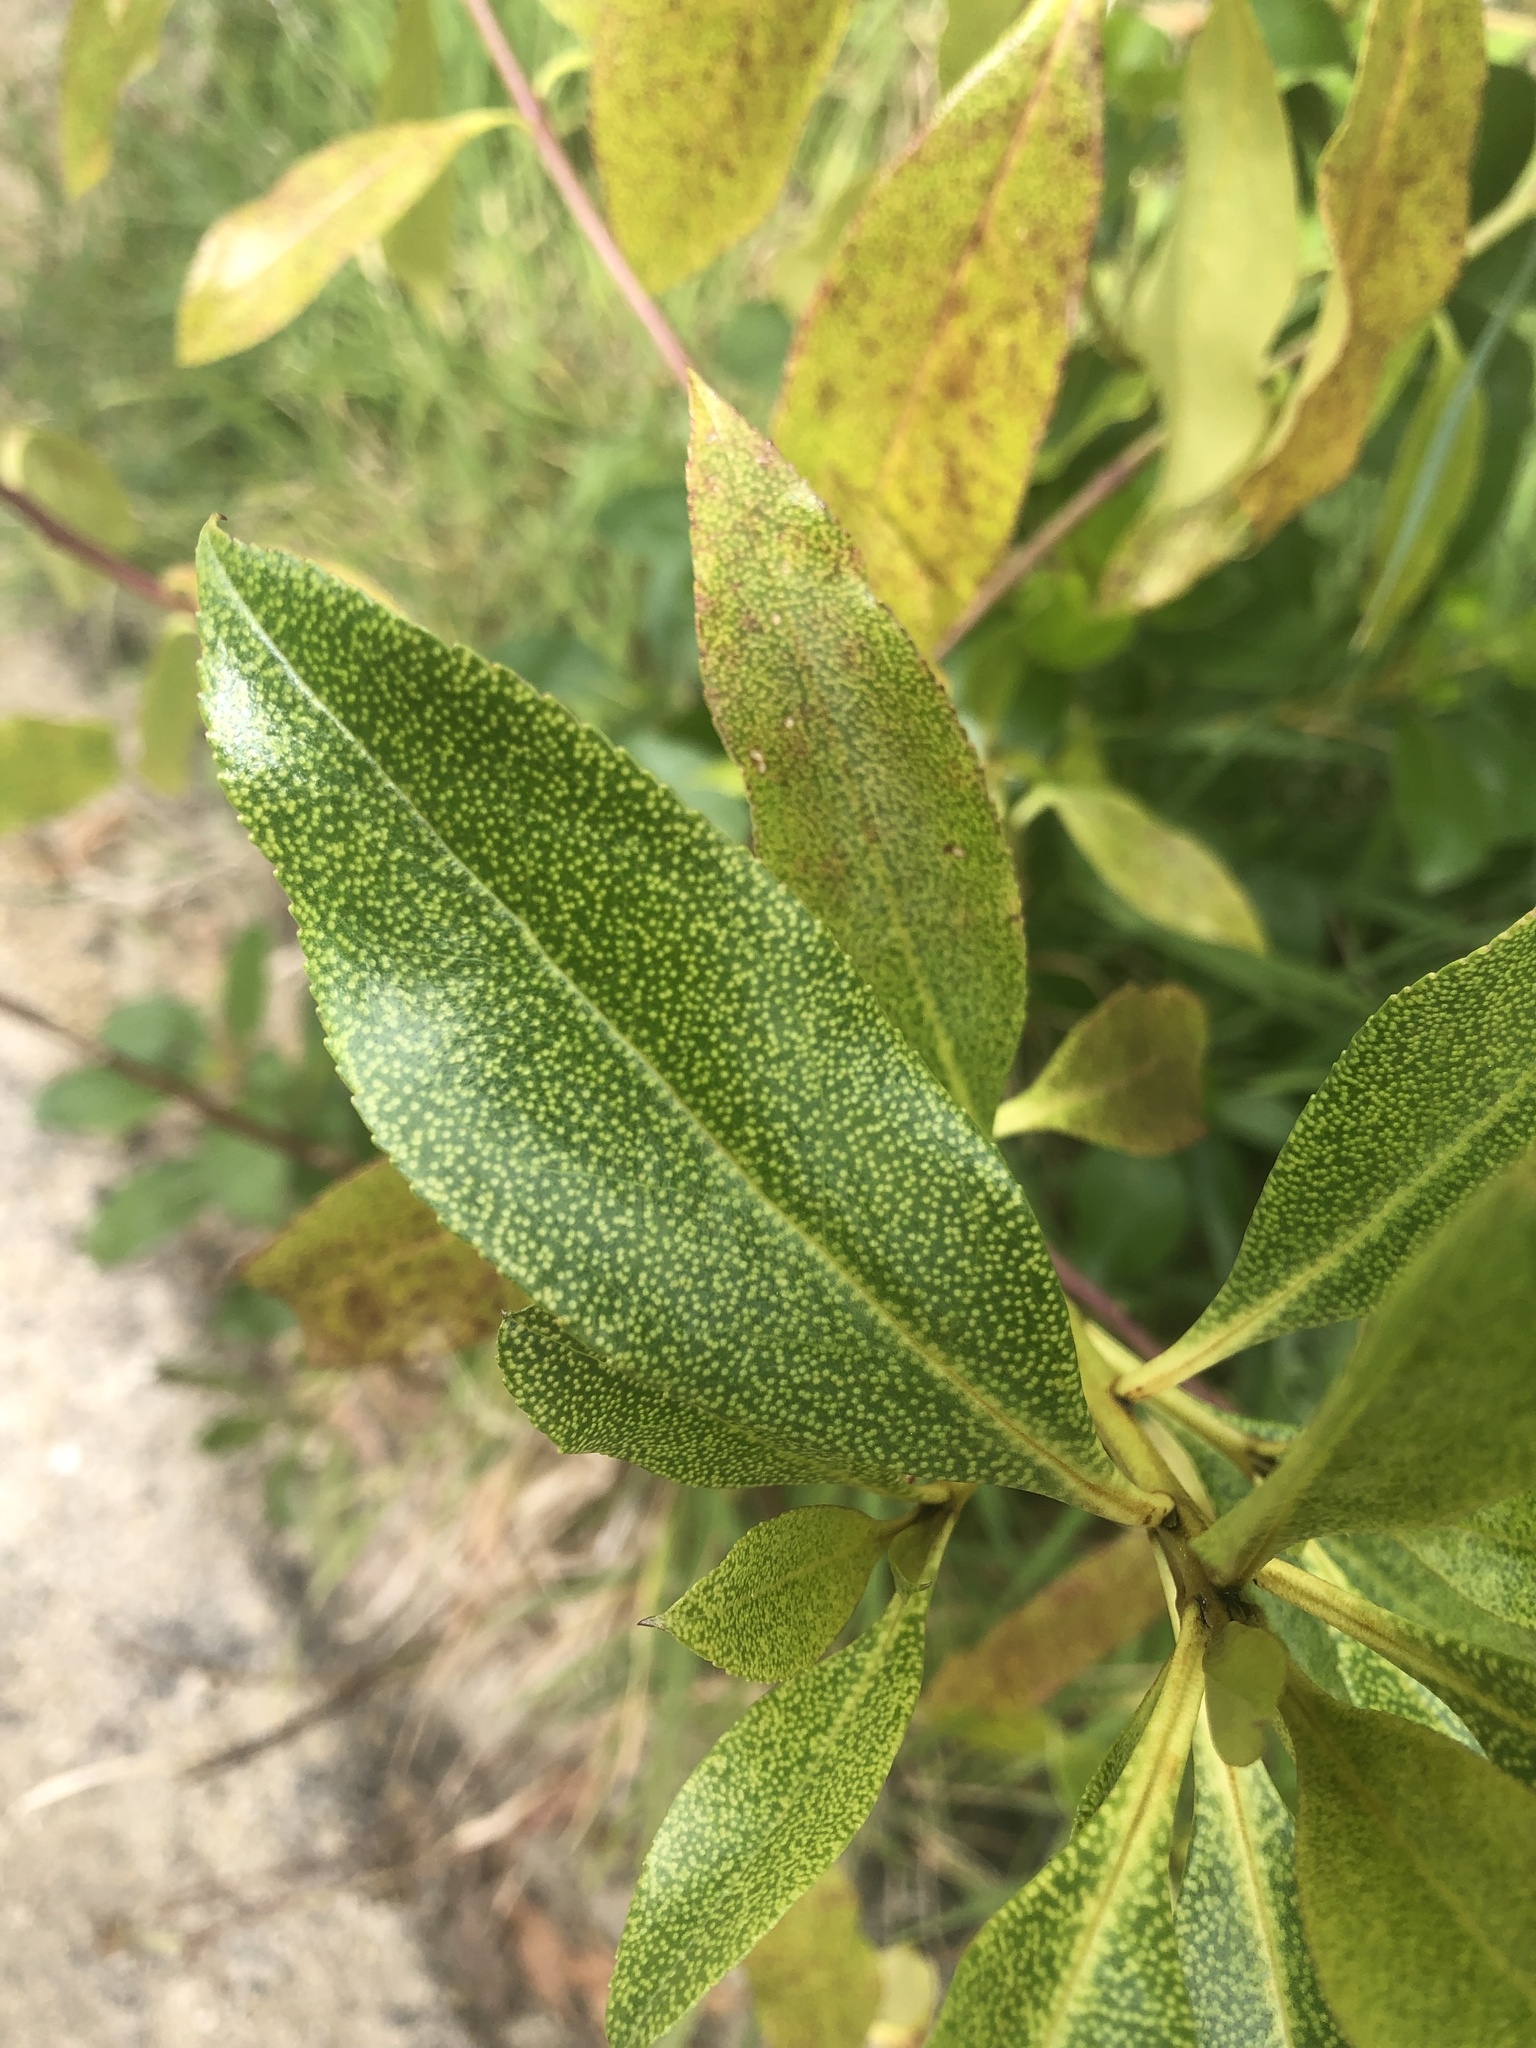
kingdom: Plantae
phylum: Tracheophyta
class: Magnoliopsida
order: Lamiales
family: Scrophulariaceae
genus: Myoporum
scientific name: Myoporum laetum
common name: Ngaio tree
